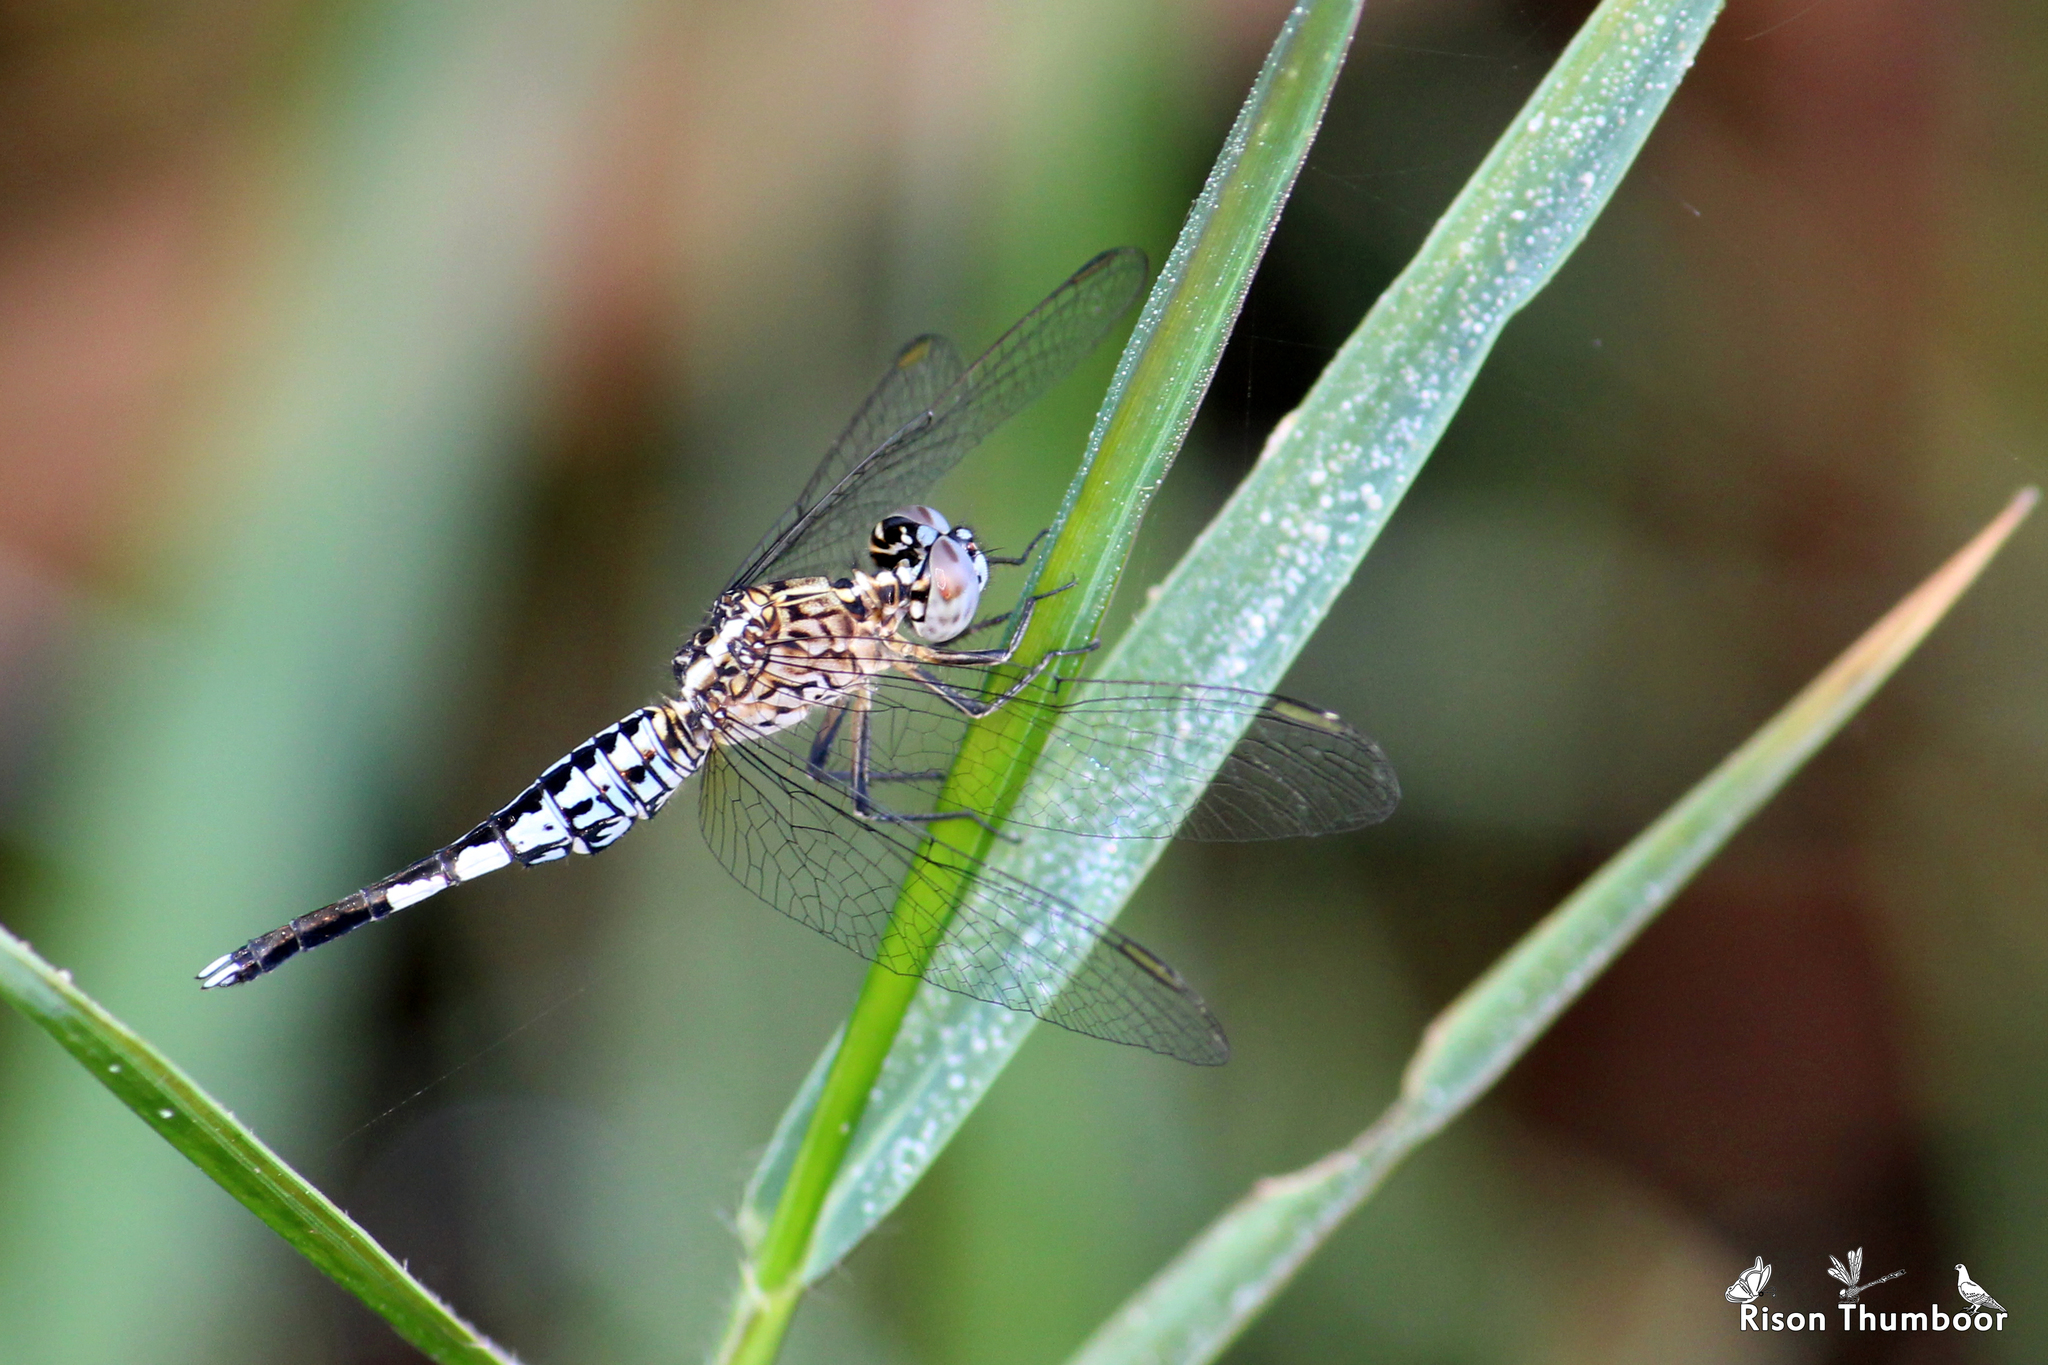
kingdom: Animalia
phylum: Arthropoda
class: Insecta
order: Odonata
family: Libellulidae
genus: Acisoma
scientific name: Acisoma panorpoides
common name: Asian pintail
